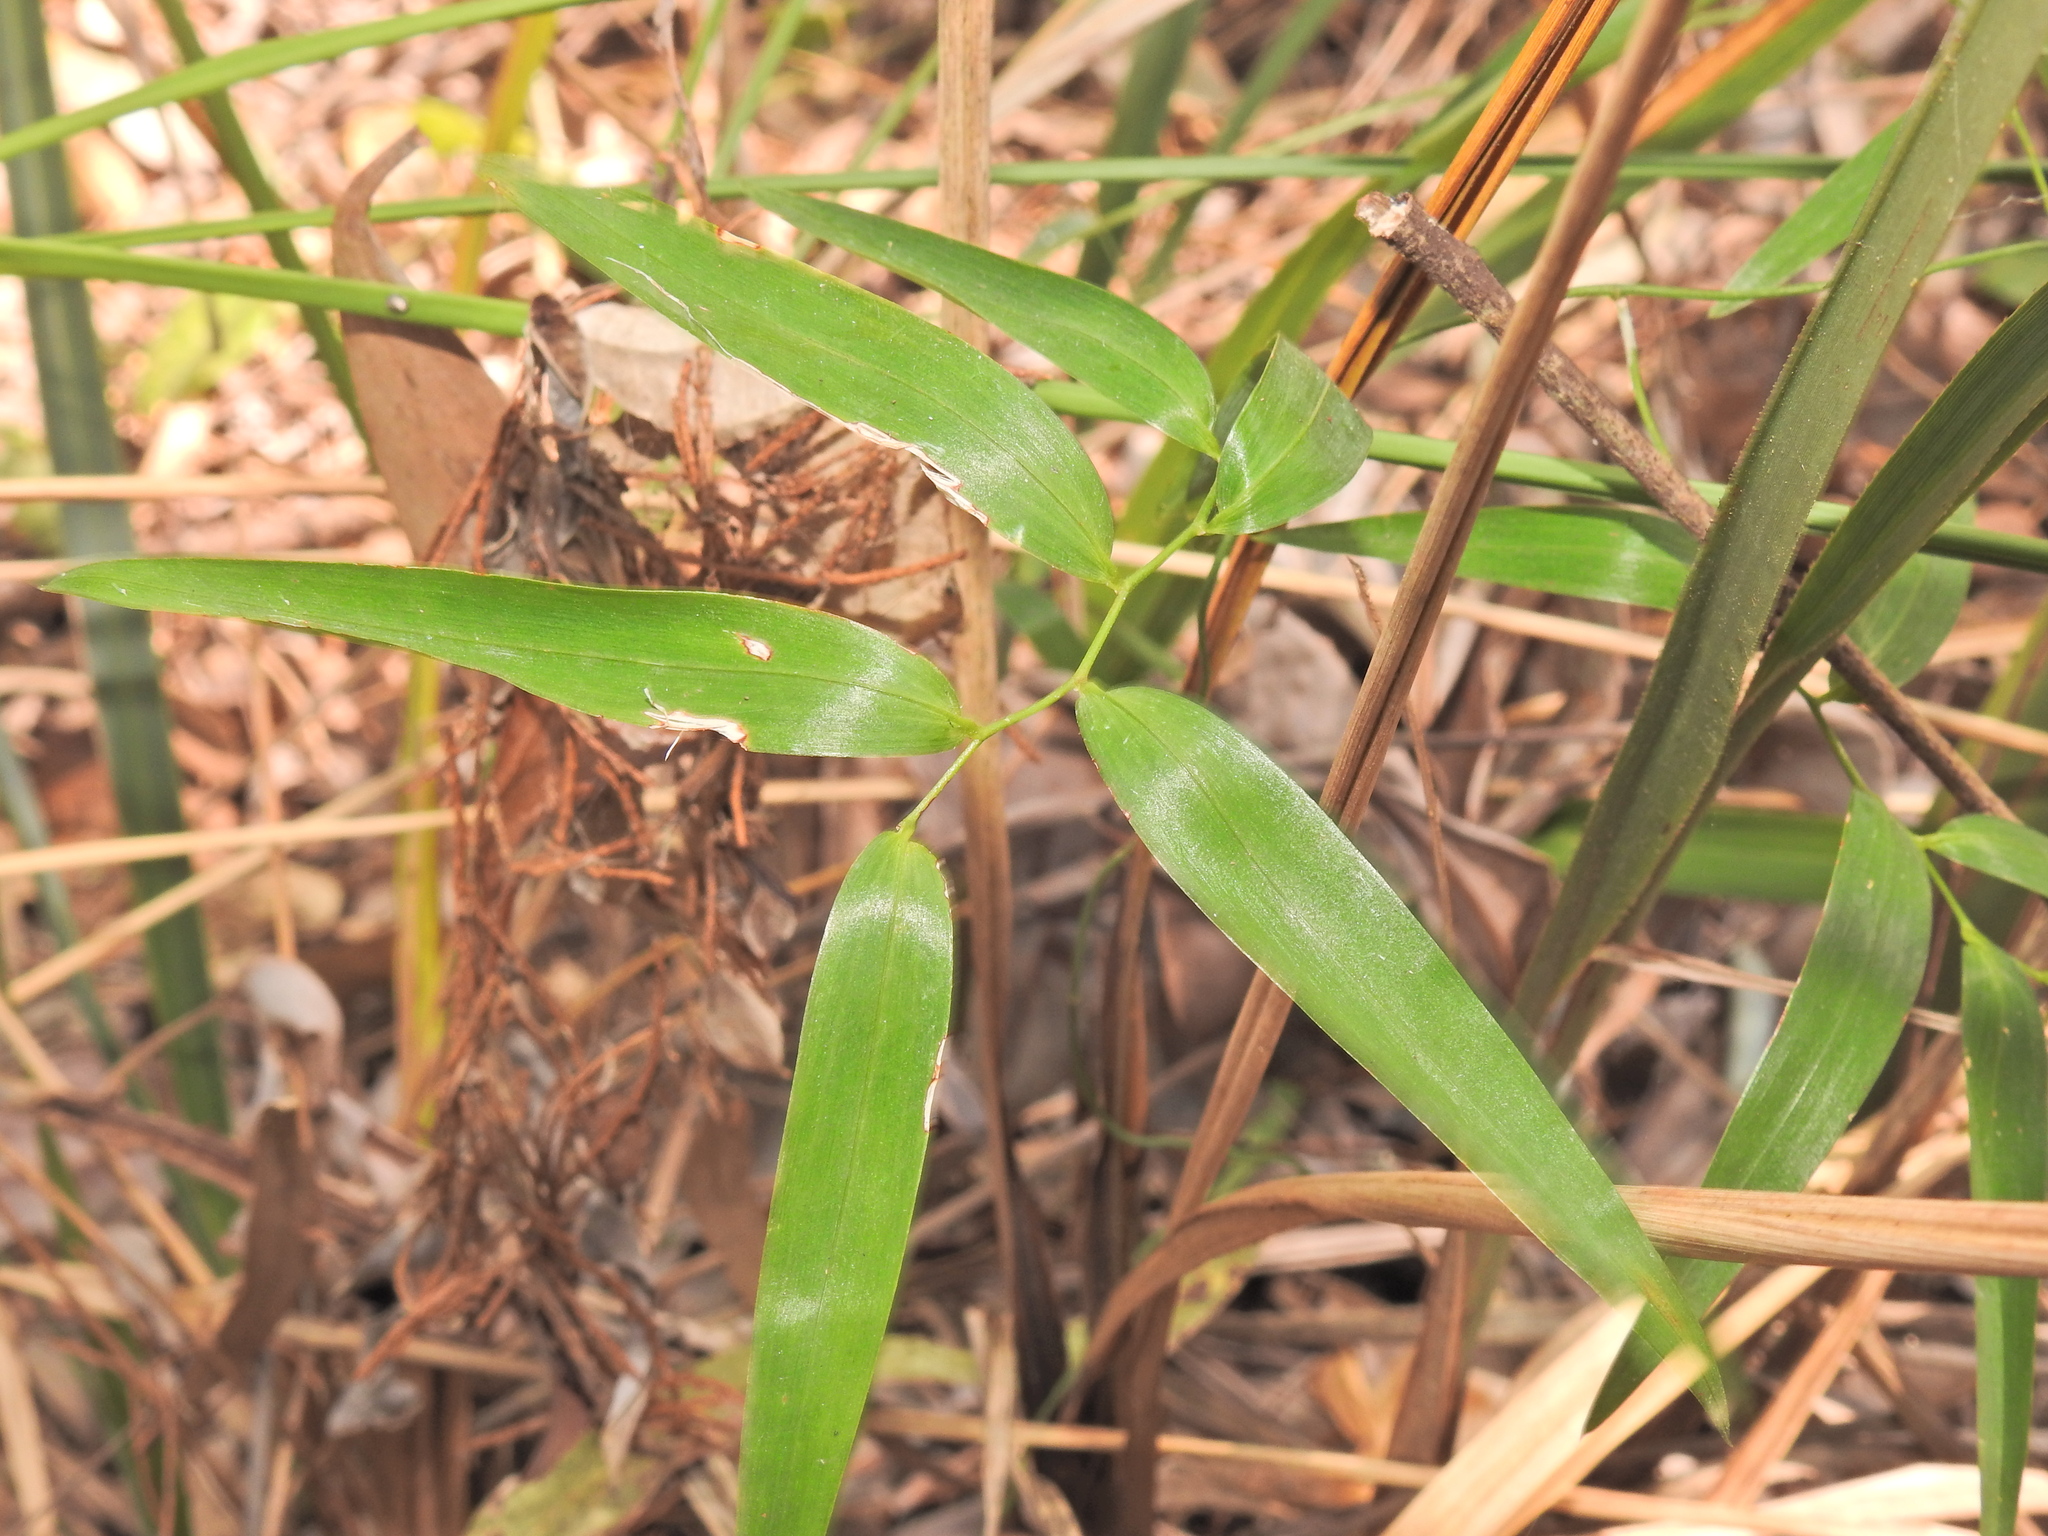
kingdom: Plantae
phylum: Tracheophyta
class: Liliopsida
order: Asparagales
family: Asphodelaceae
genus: Geitonoplesium
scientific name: Geitonoplesium cymosum
